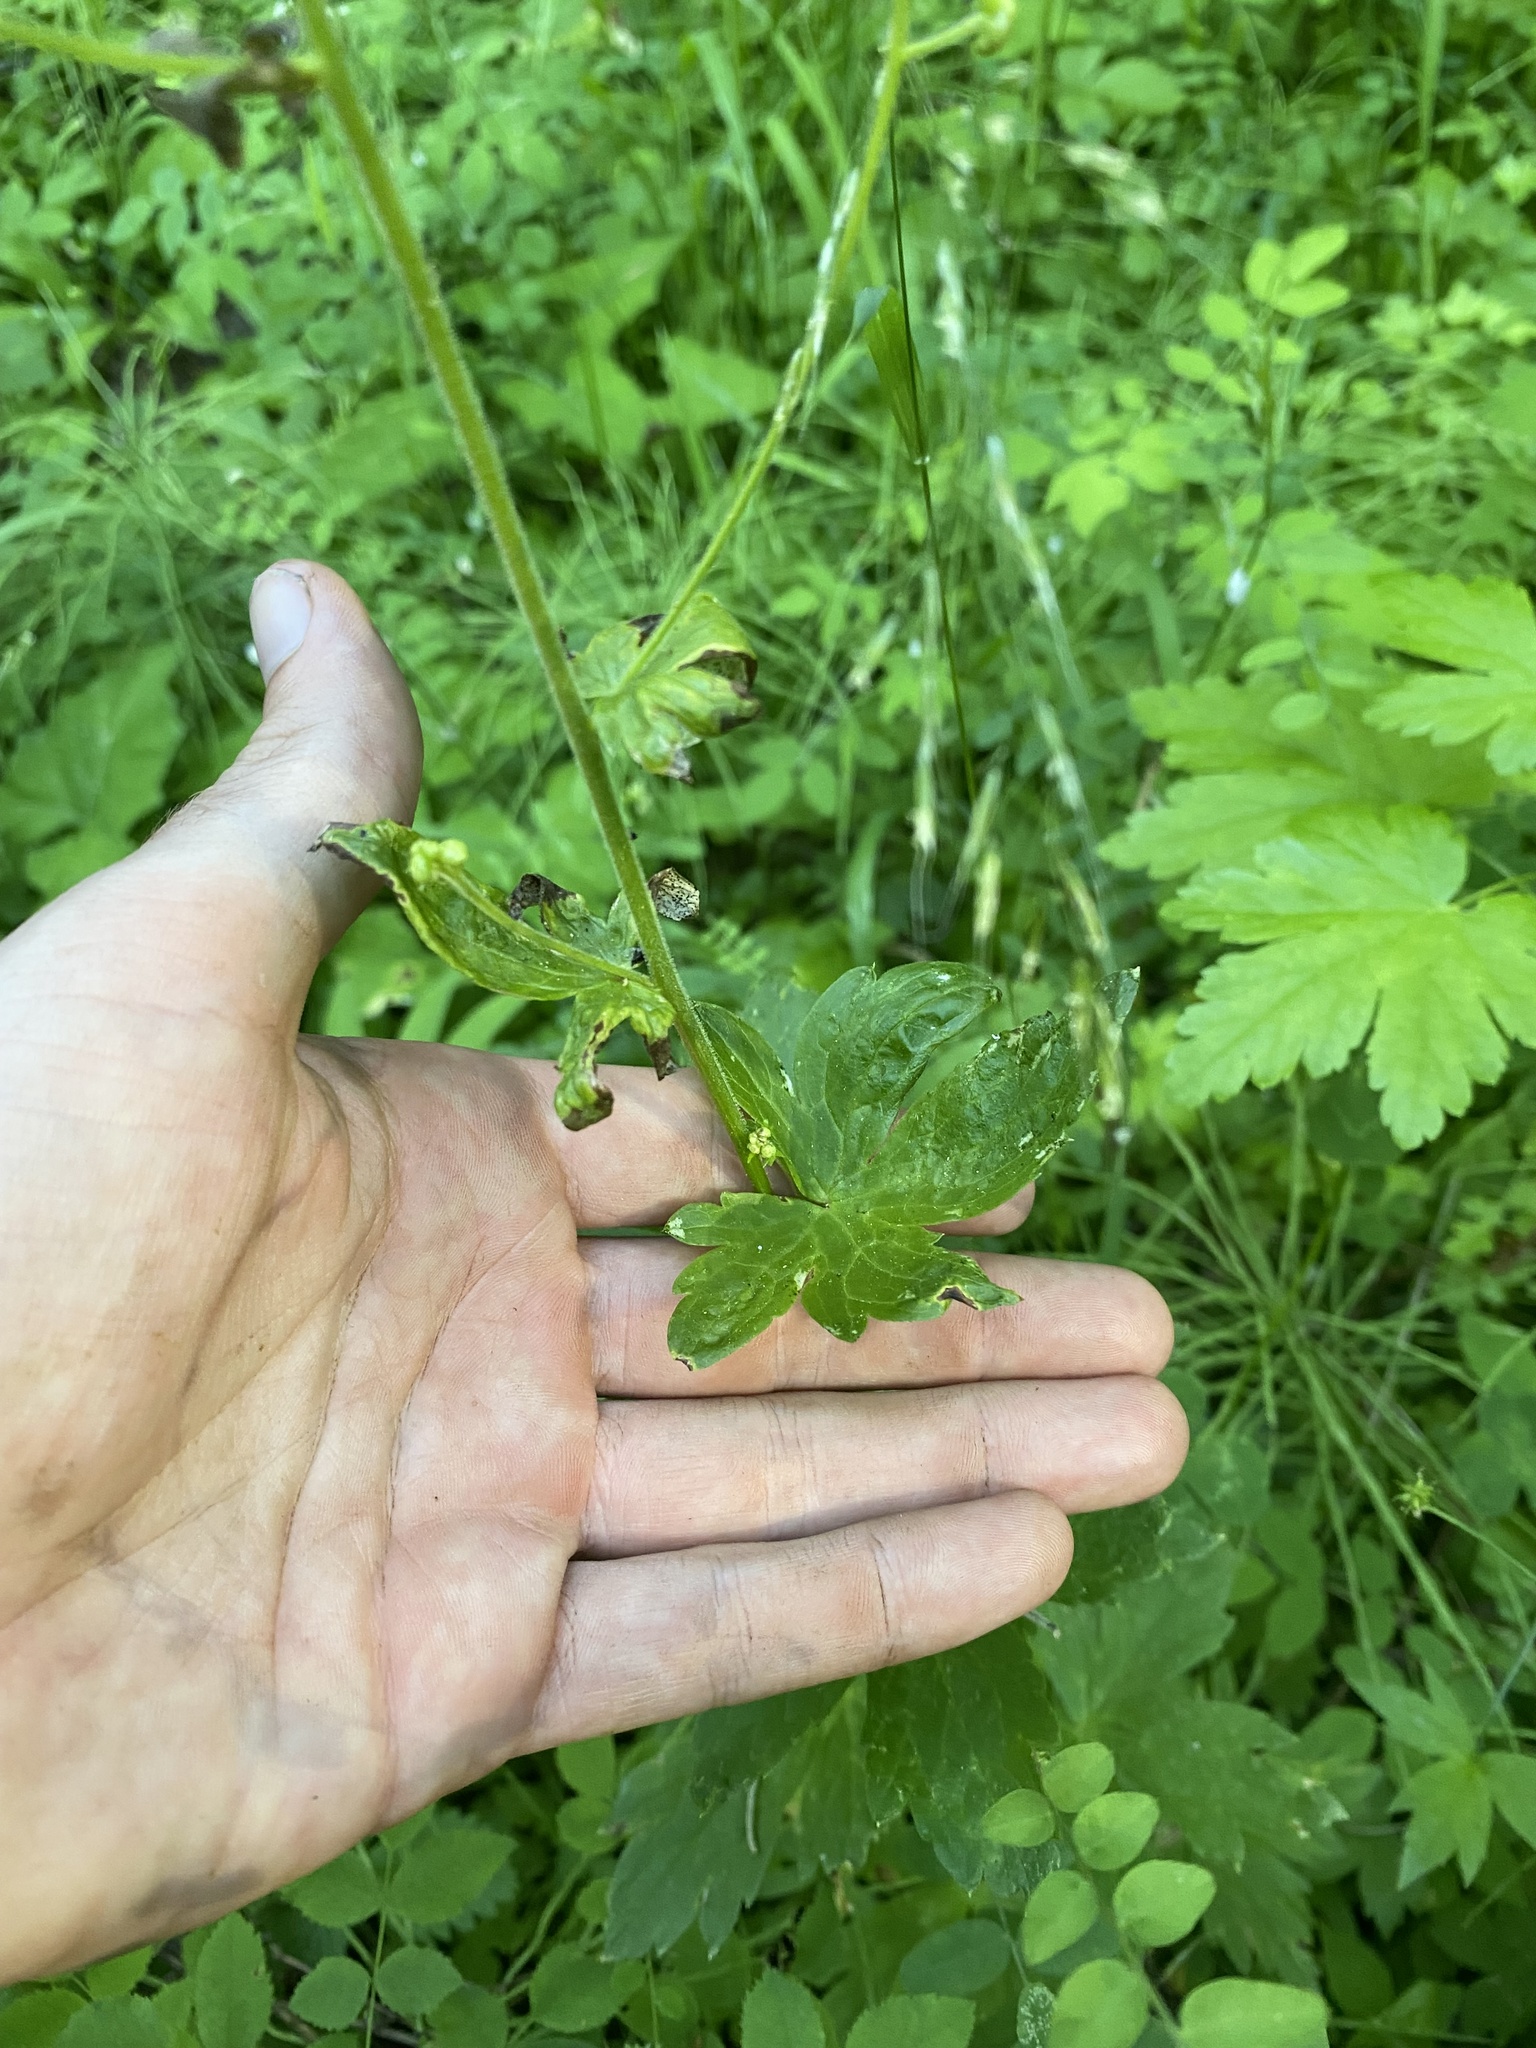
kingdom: Plantae
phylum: Tracheophyta
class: Magnoliopsida
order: Ranunculales
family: Ranunculaceae
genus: Aconitum
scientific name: Aconitum columbianum
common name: Columbia aconite
